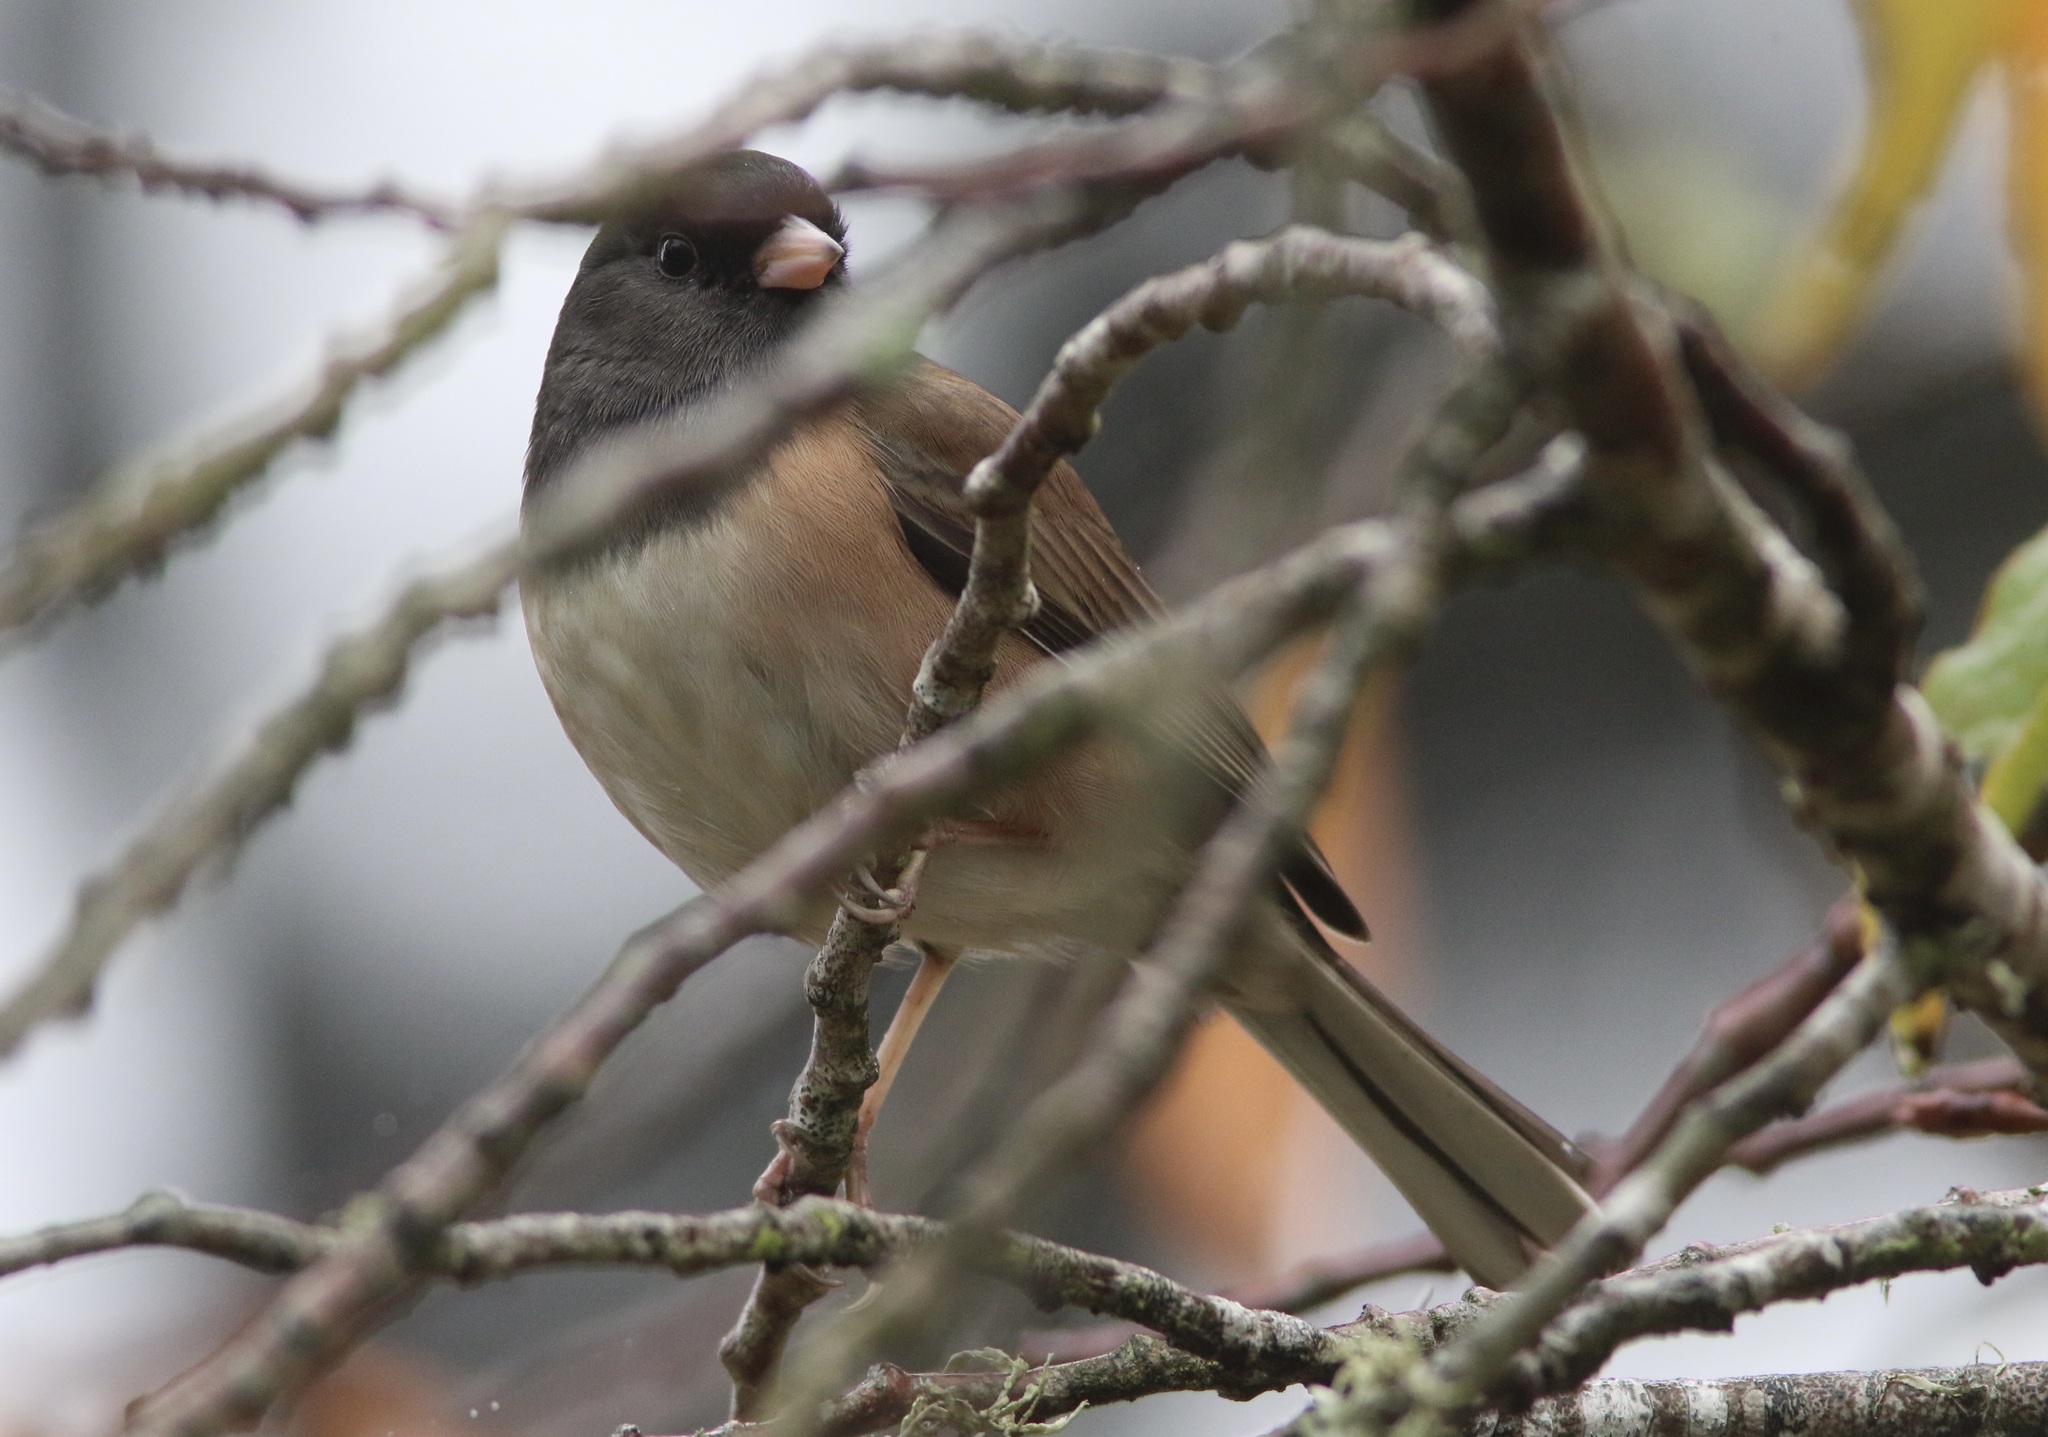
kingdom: Animalia
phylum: Chordata
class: Aves
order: Passeriformes
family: Passerellidae
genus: Junco
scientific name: Junco hyemalis
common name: Dark-eyed junco
